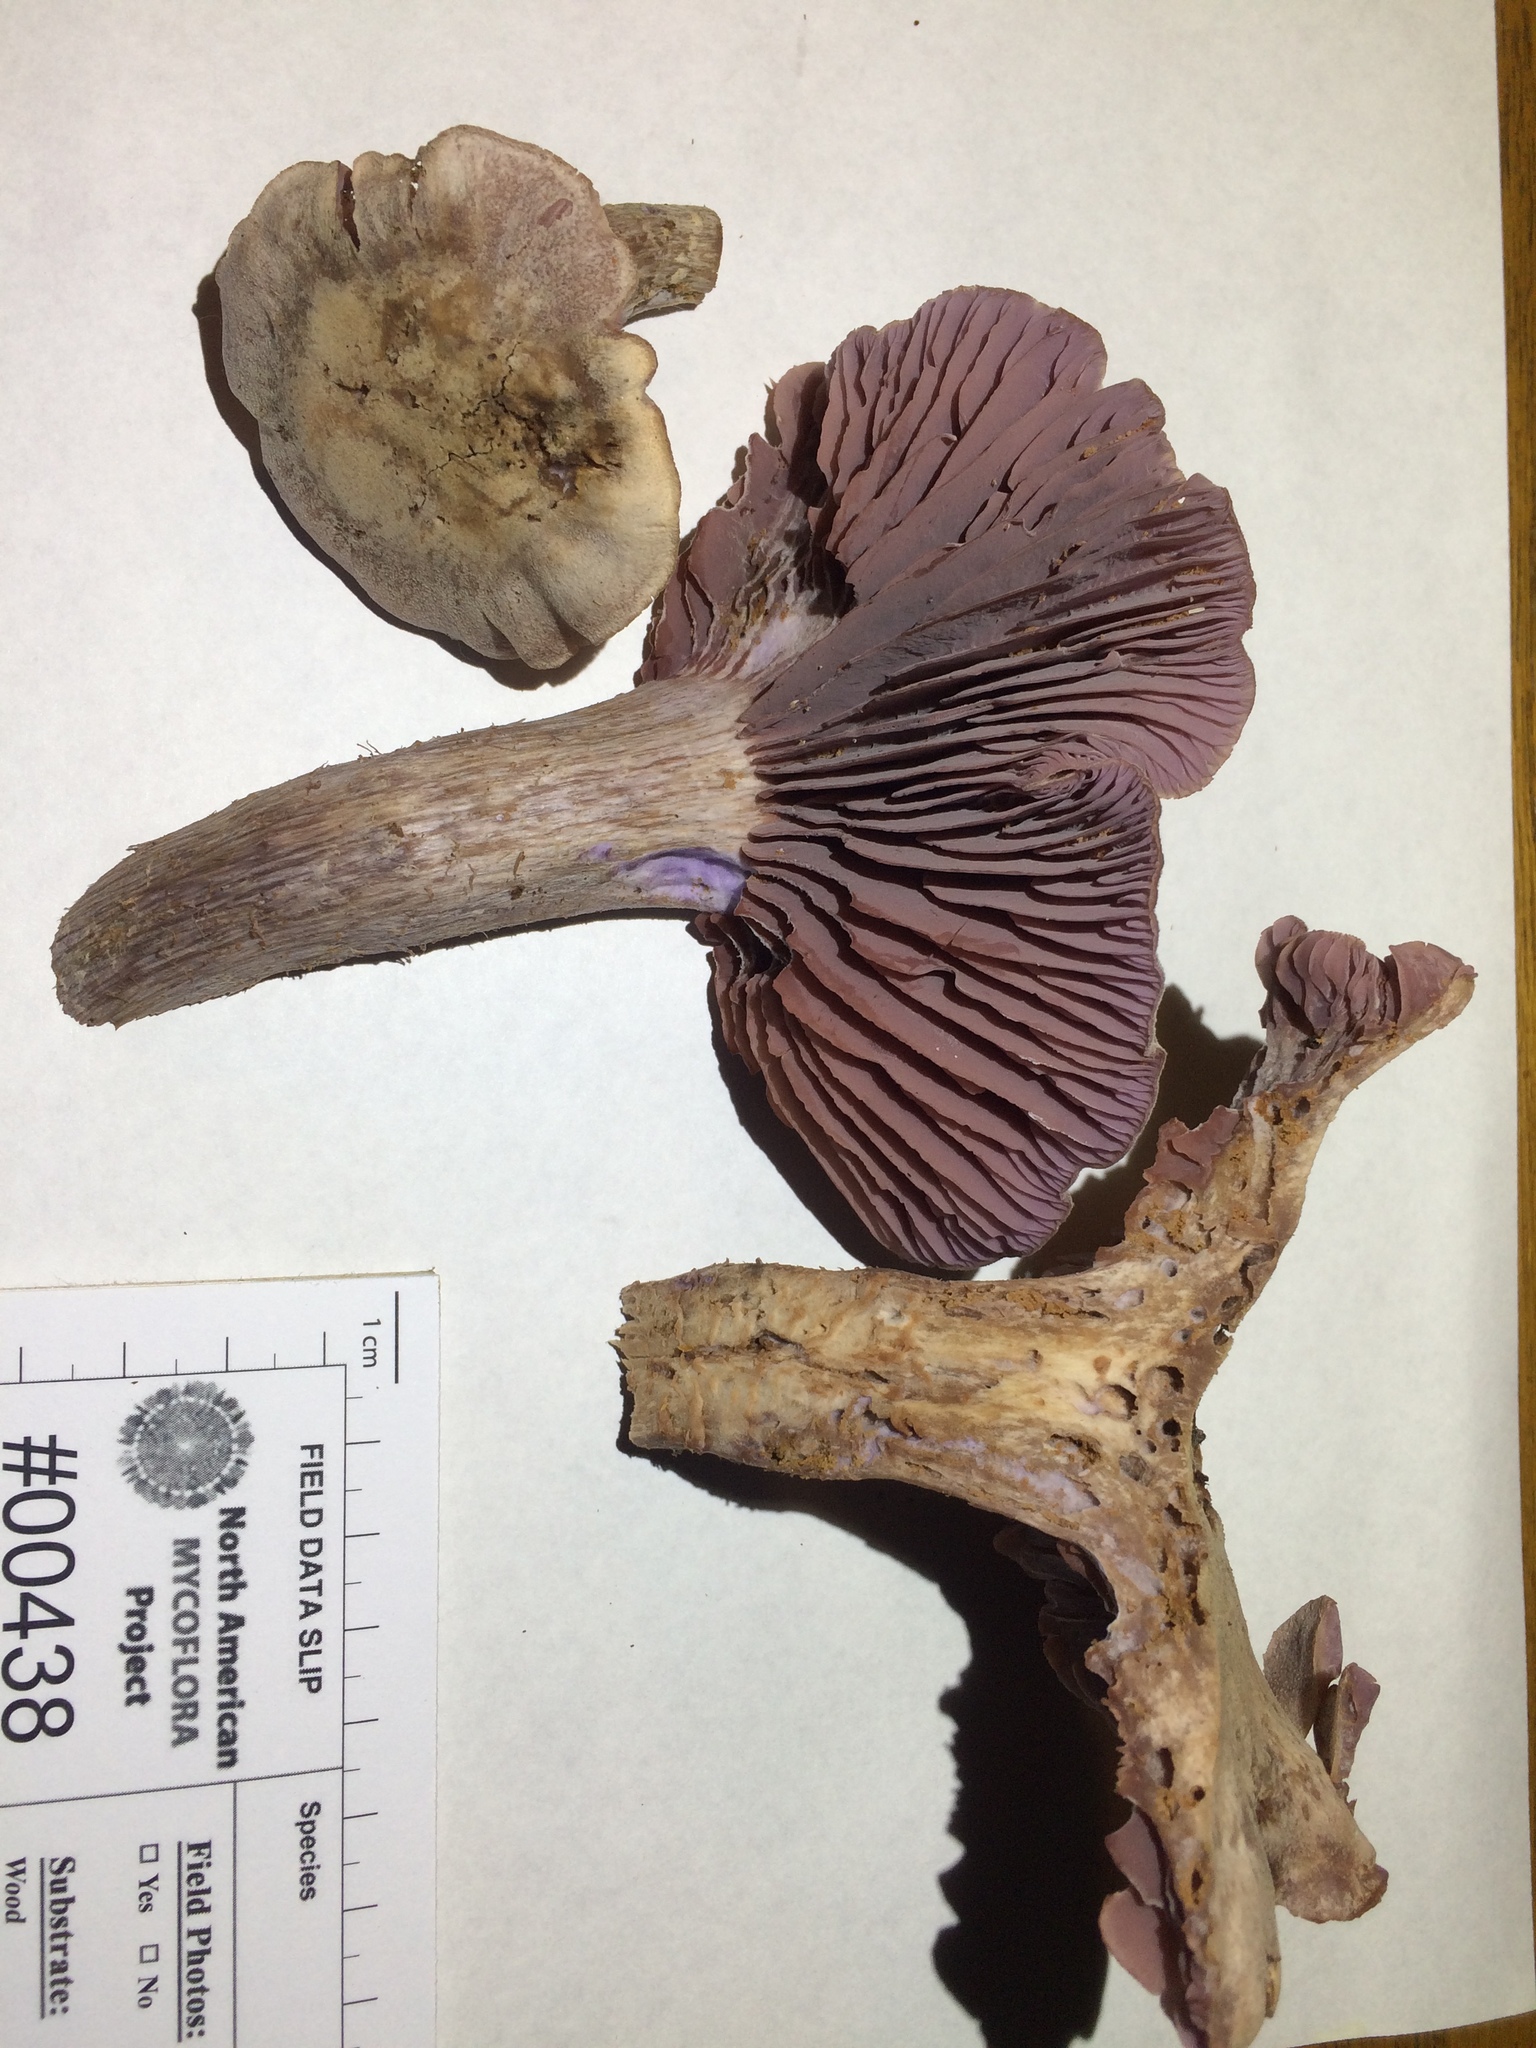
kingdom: Fungi
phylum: Basidiomycota
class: Agaricomycetes
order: Agaricales
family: Hydnangiaceae
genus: Laccaria
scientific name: Laccaria ochropurpurea
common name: Purple laccaria
